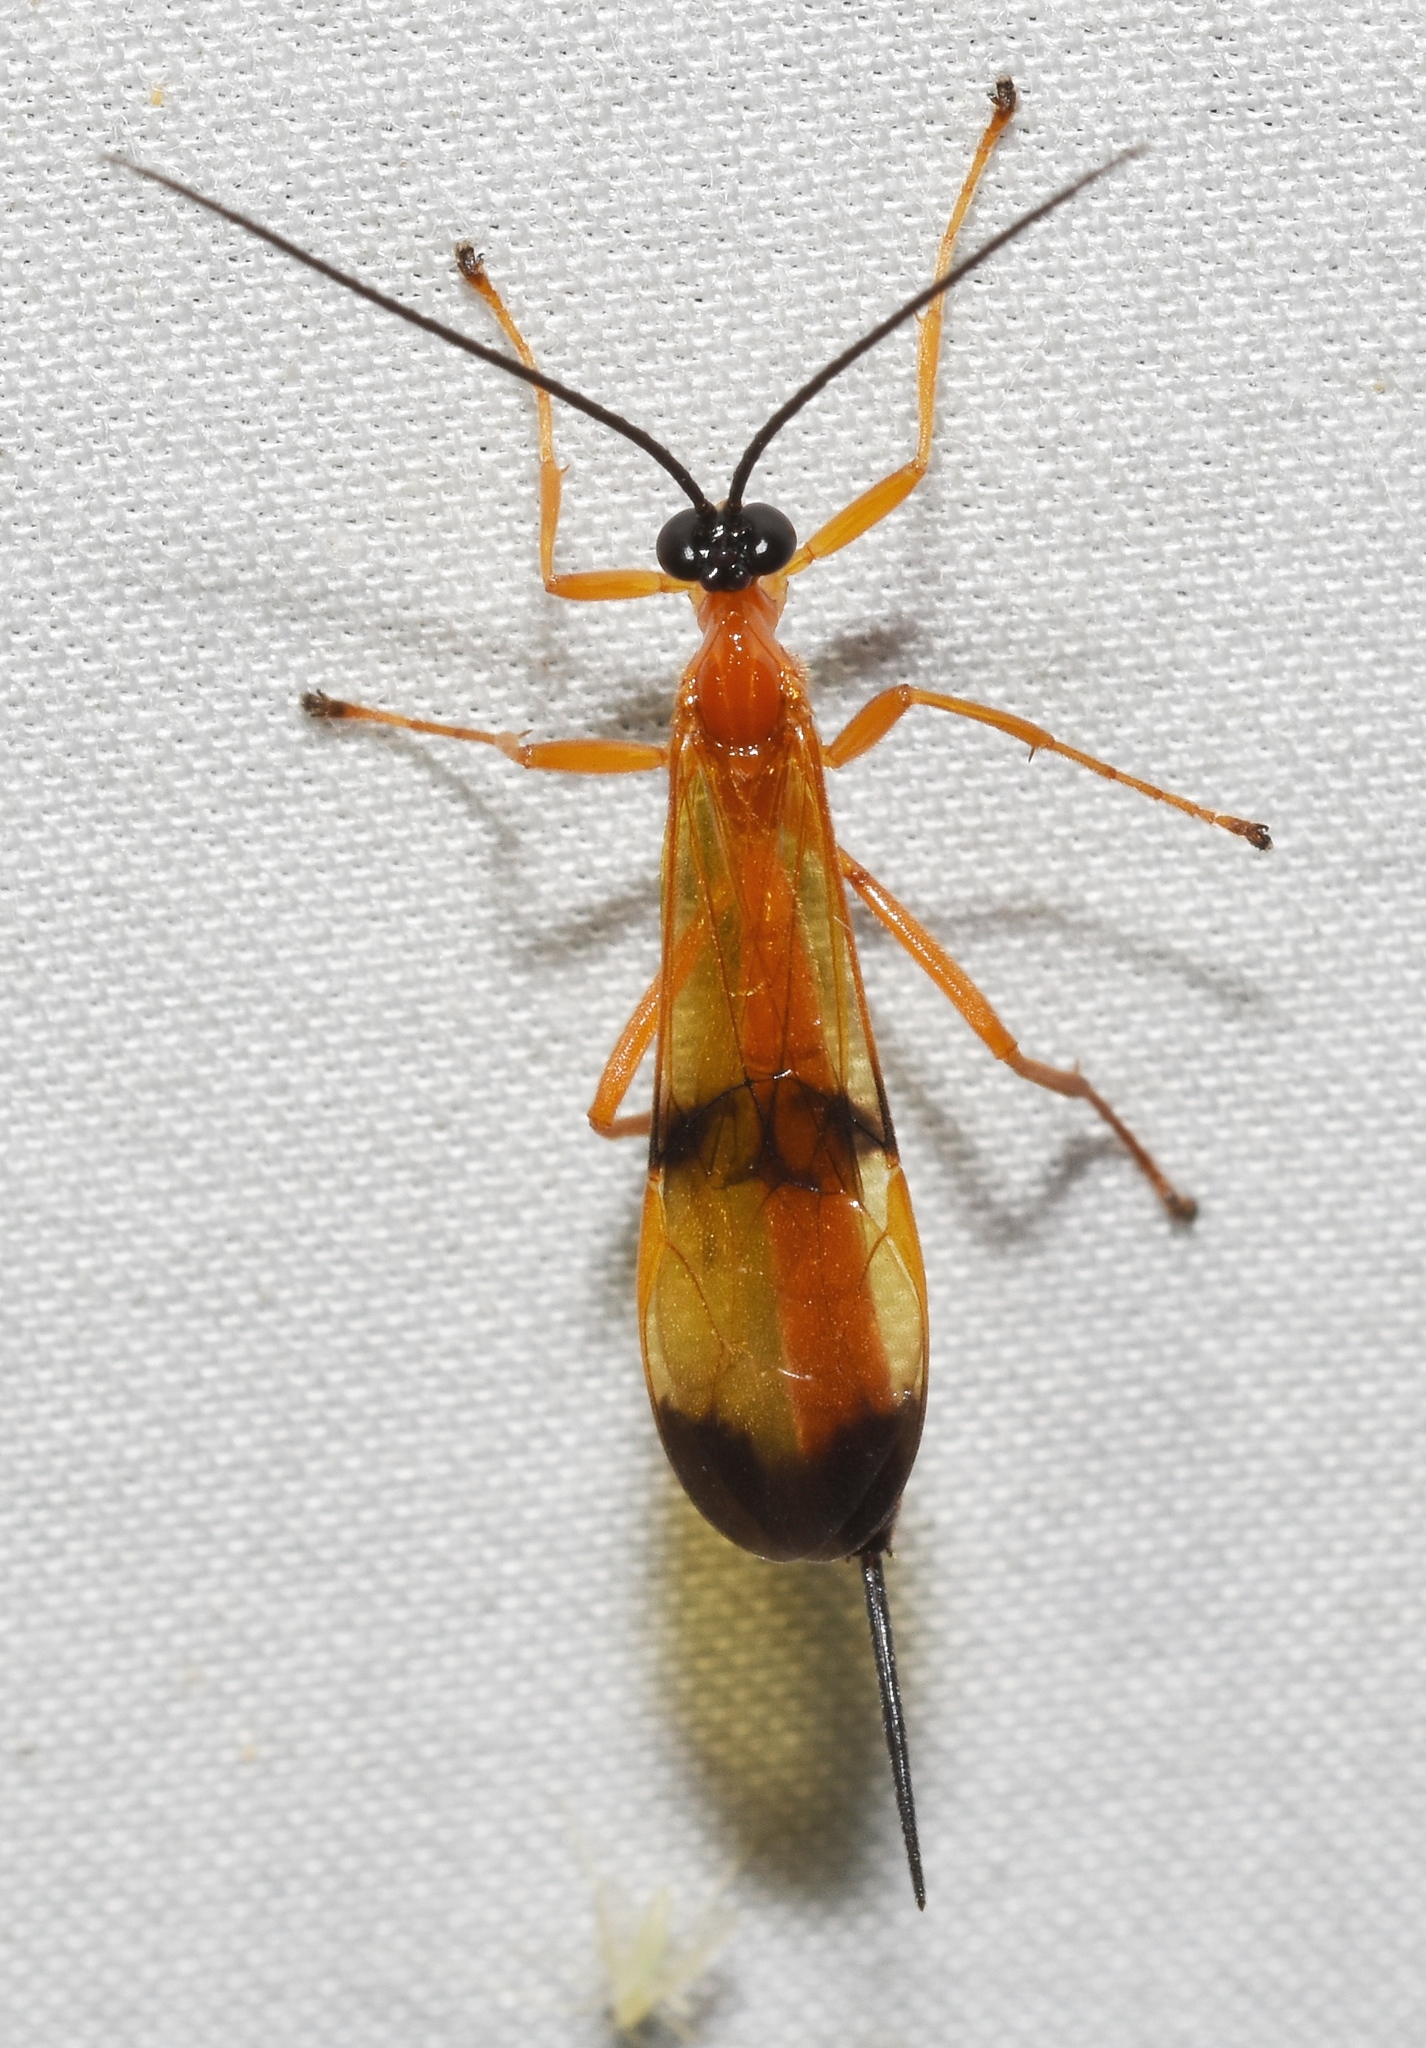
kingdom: Animalia
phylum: Arthropoda
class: Insecta
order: Hymenoptera
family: Ichneumonidae
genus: Acrotaphus
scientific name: Acrotaphus wiltii
